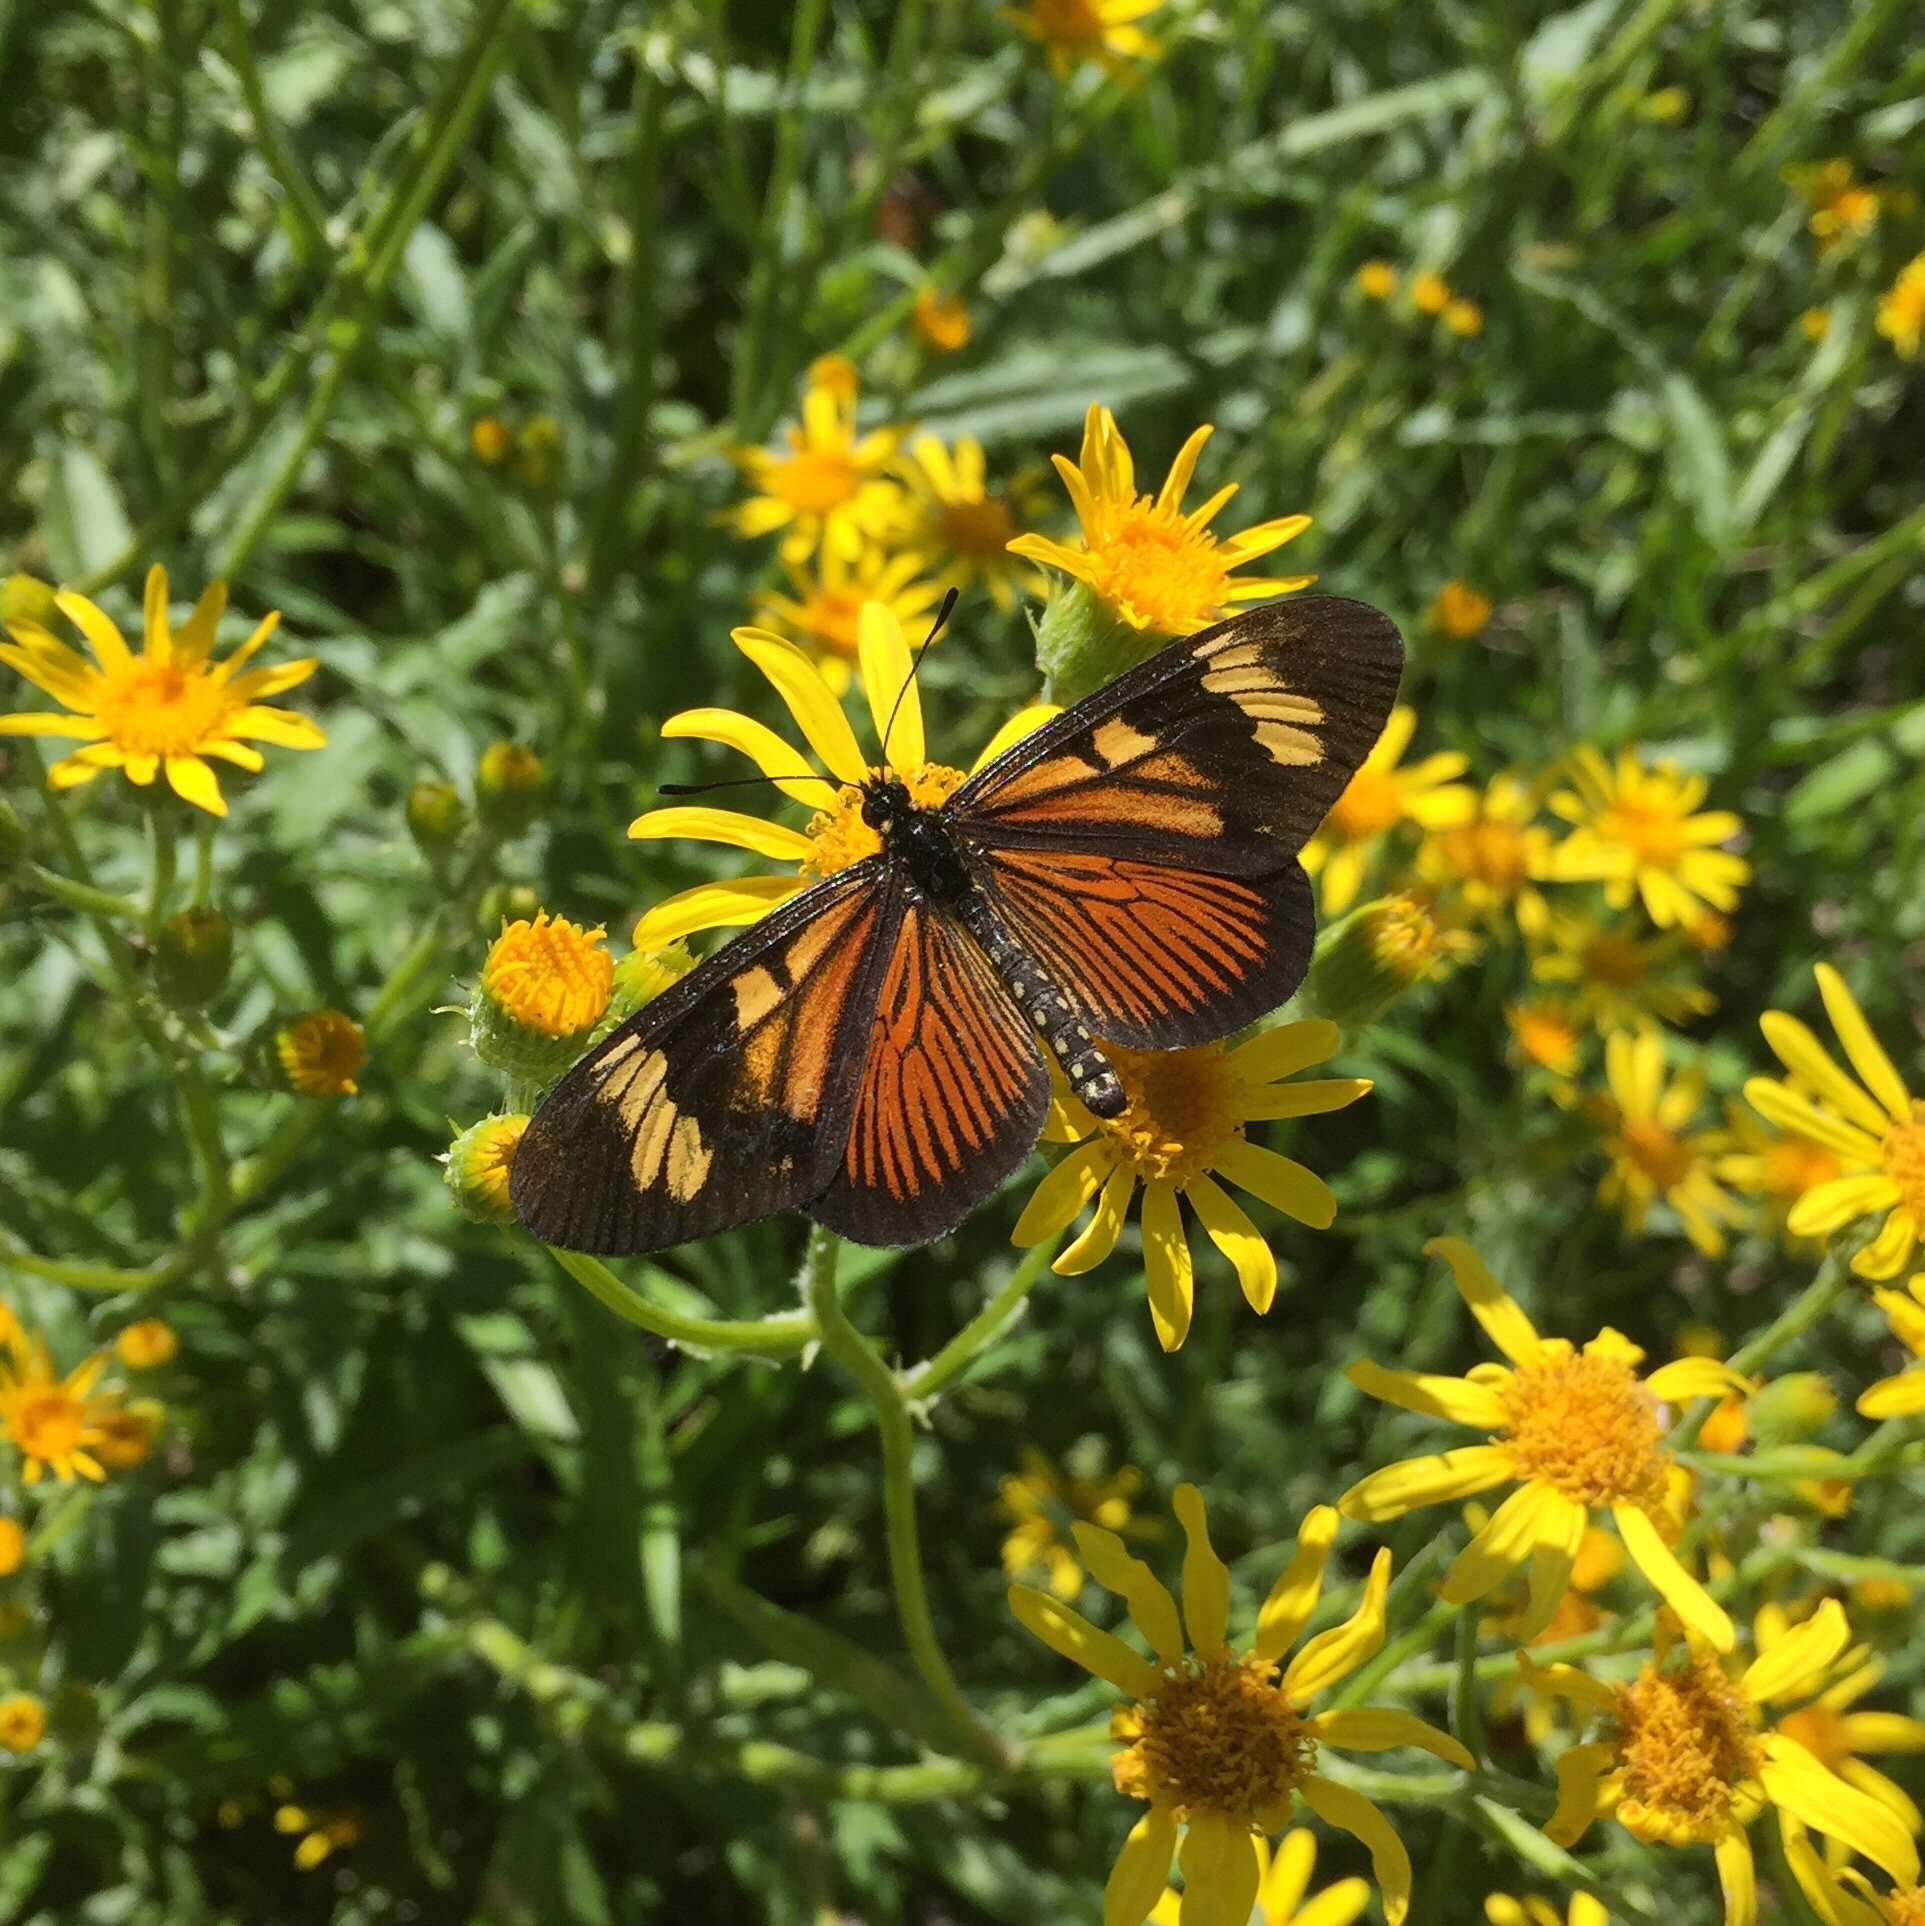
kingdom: Animalia
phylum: Arthropoda
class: Insecta
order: Lepidoptera
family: Nymphalidae
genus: Actinote
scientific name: Actinote pellenea
